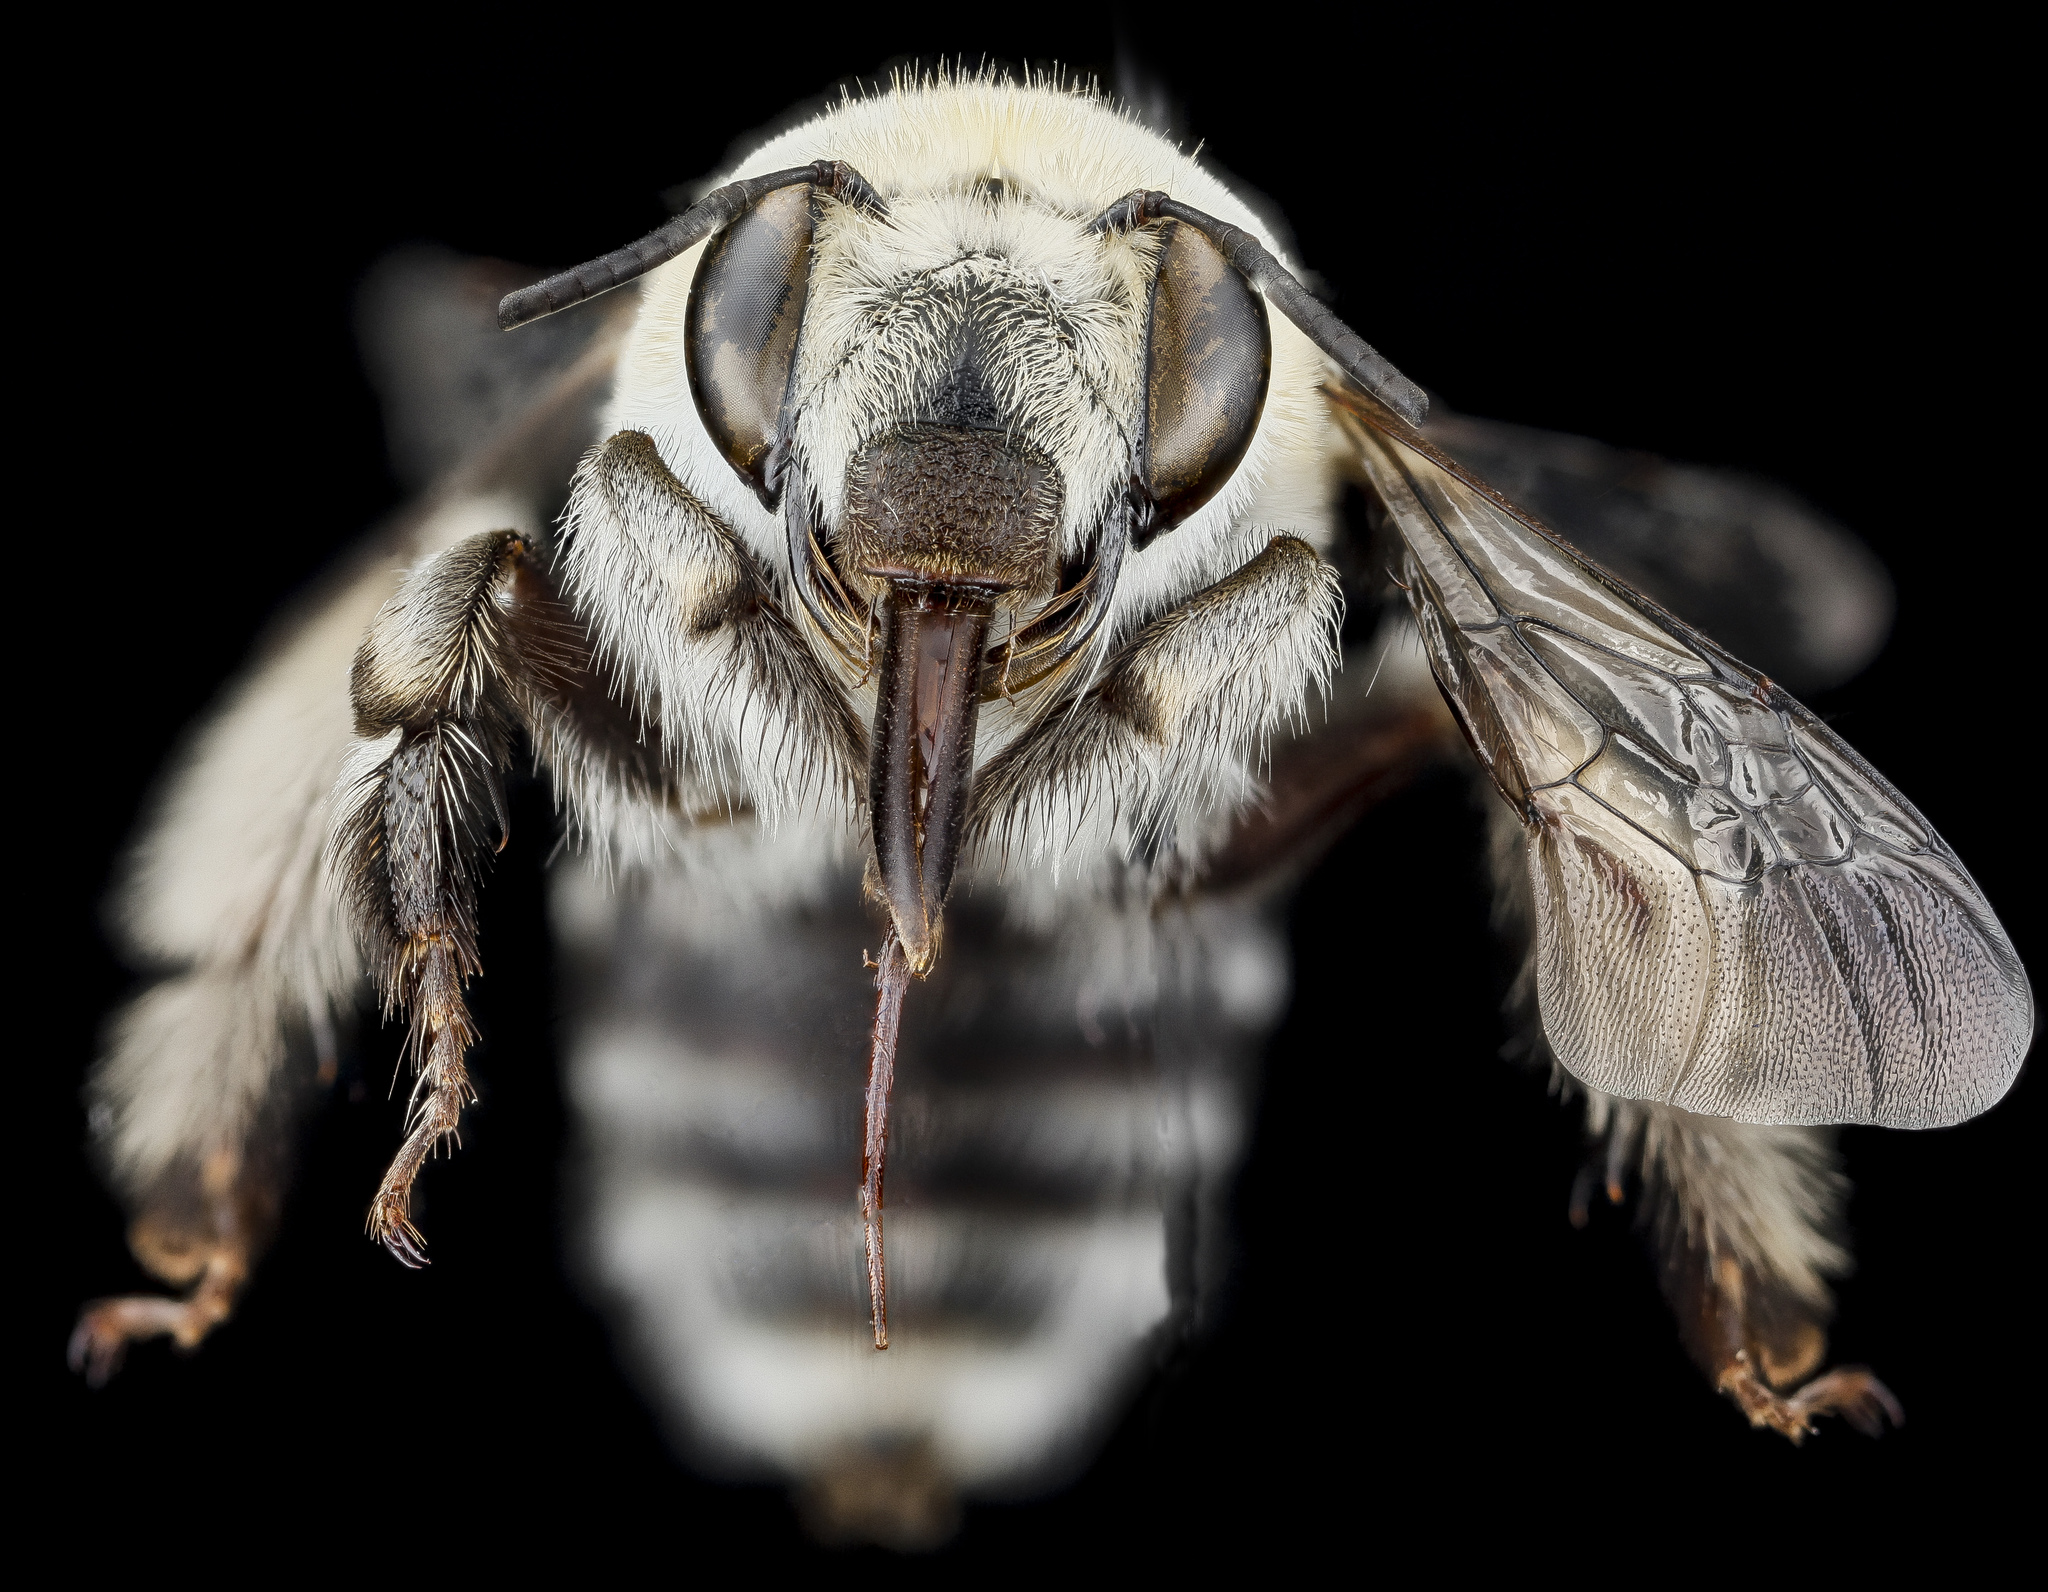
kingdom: Animalia
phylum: Arthropoda
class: Insecta
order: Hymenoptera
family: Apidae
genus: Anthophora
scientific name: Anthophora affabilis
